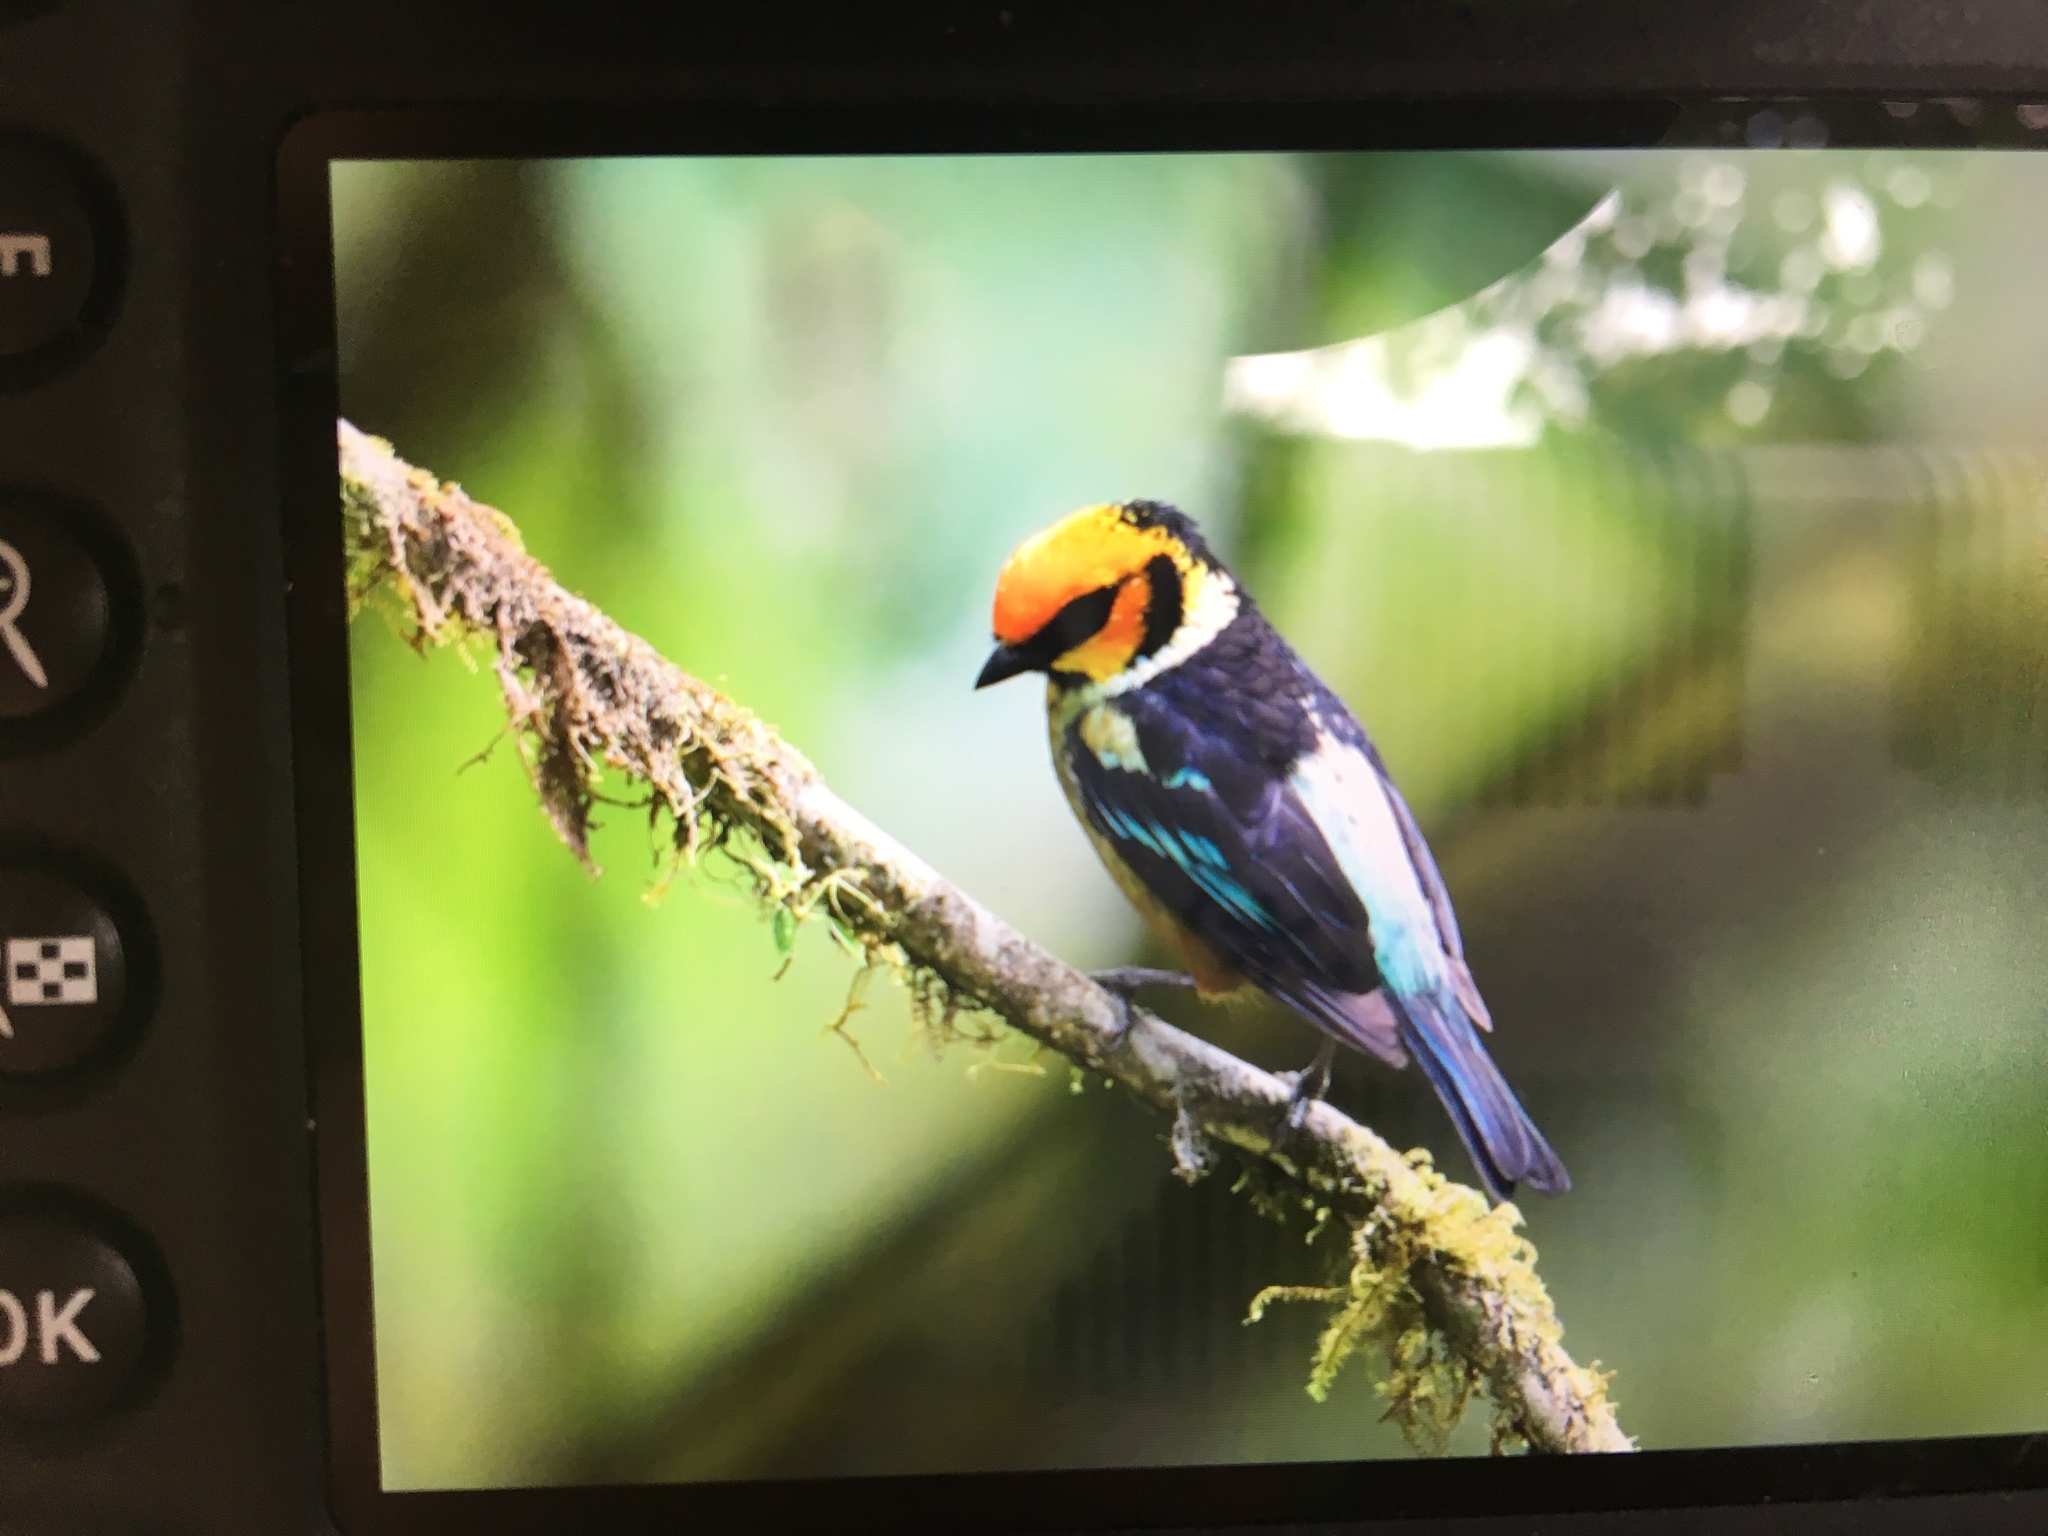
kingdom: Animalia
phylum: Chordata
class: Aves
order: Passeriformes
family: Thraupidae
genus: Tangara
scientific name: Tangara parzudakii
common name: Flame-faced tanager
